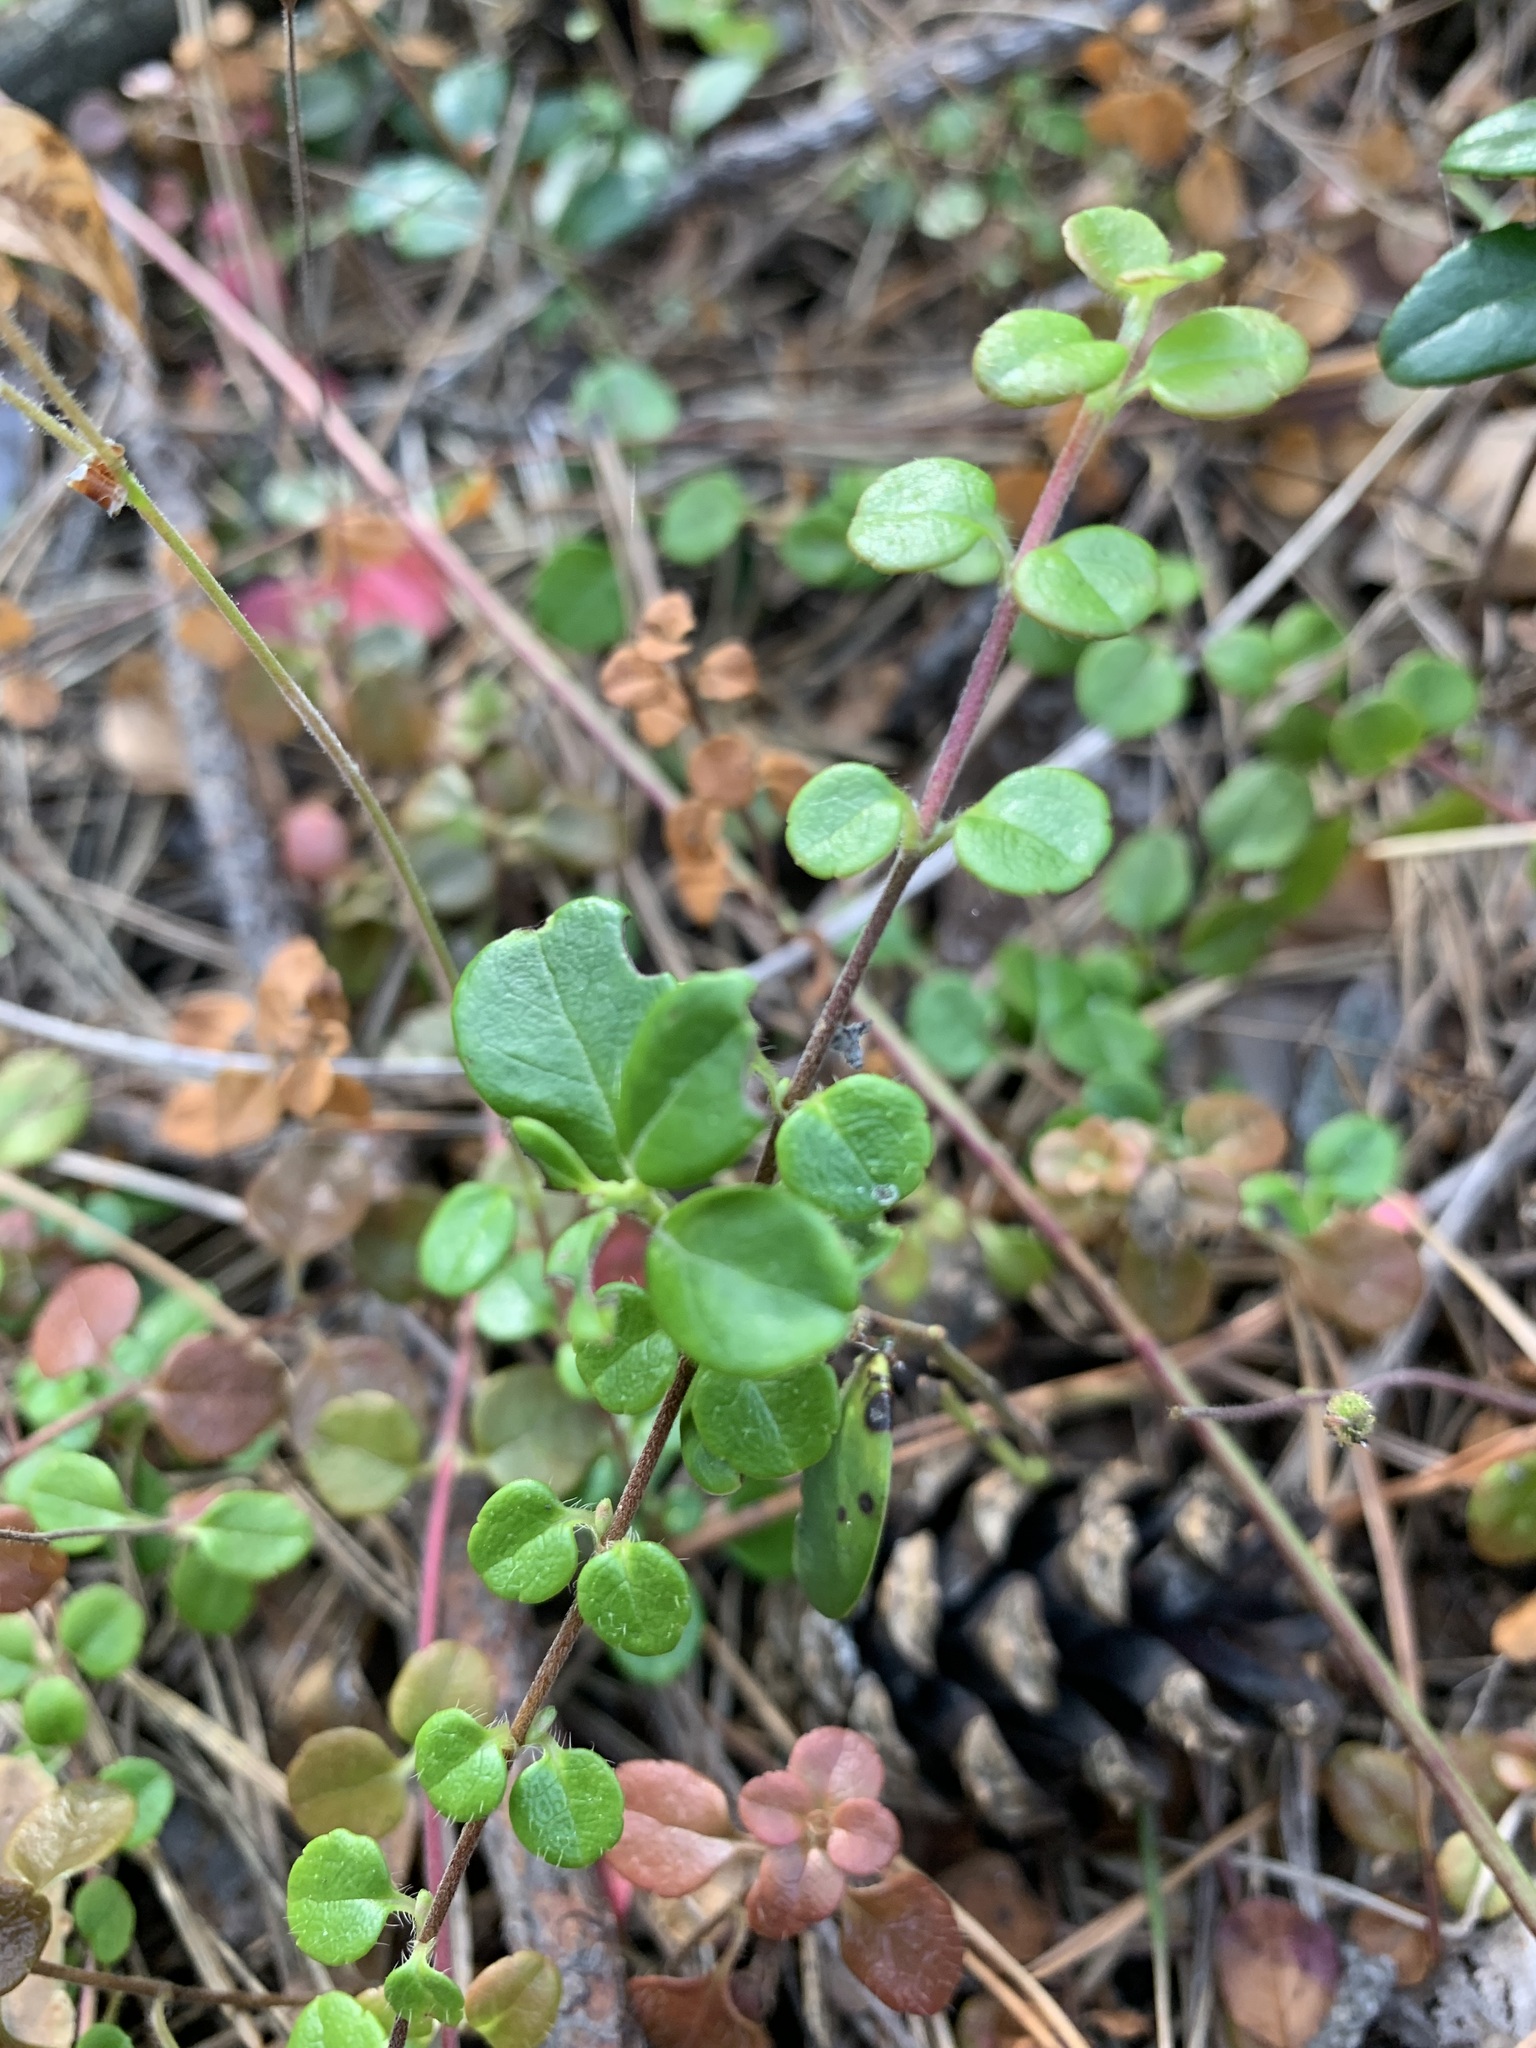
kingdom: Plantae
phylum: Tracheophyta
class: Magnoliopsida
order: Dipsacales
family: Caprifoliaceae
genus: Linnaea
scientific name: Linnaea borealis
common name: Twinflower
